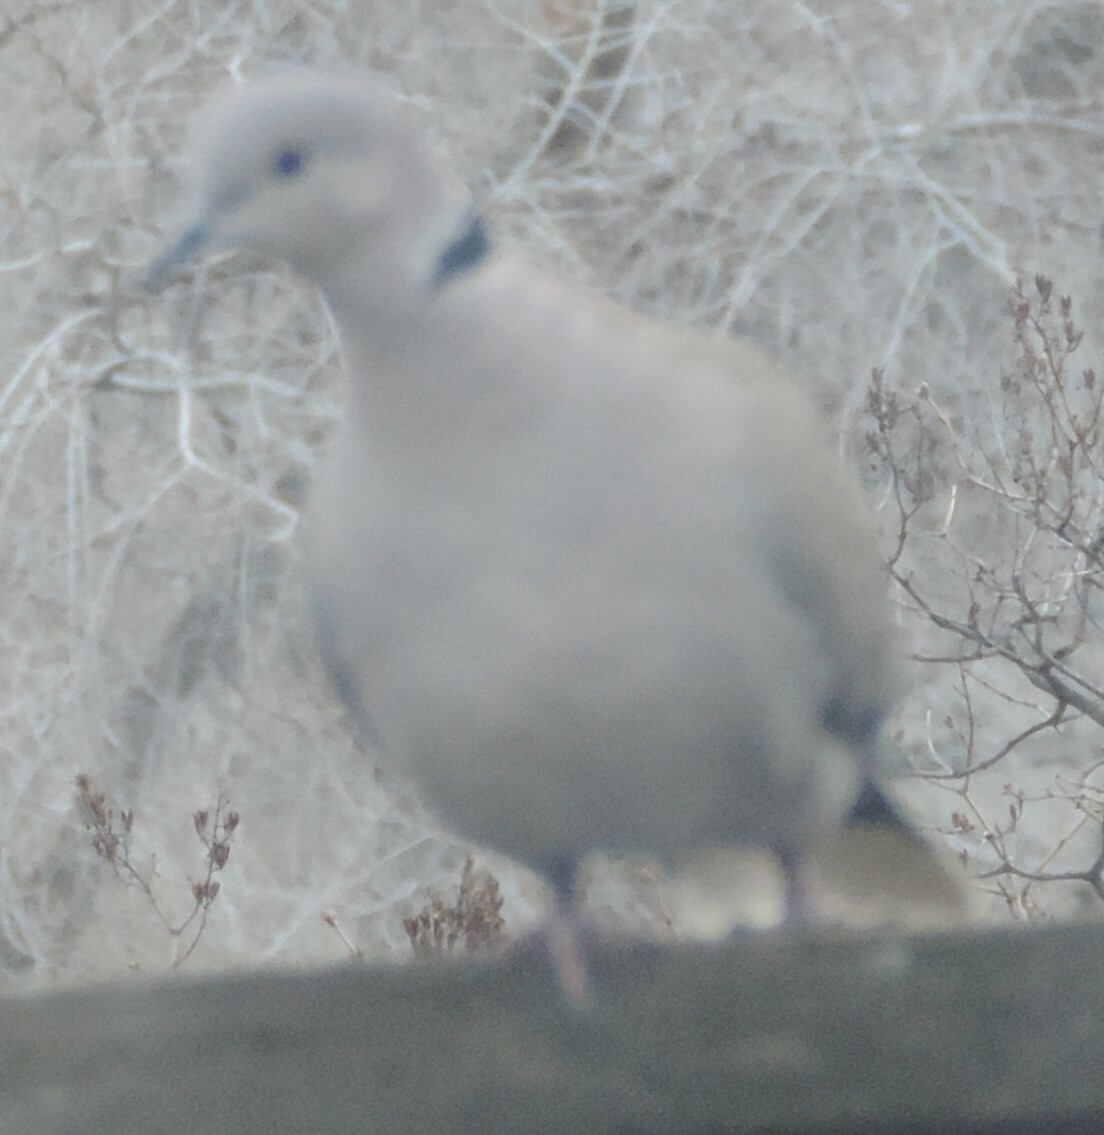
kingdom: Animalia
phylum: Chordata
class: Aves
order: Columbiformes
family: Columbidae
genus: Streptopelia
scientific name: Streptopelia decaocto
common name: Eurasian collared dove
